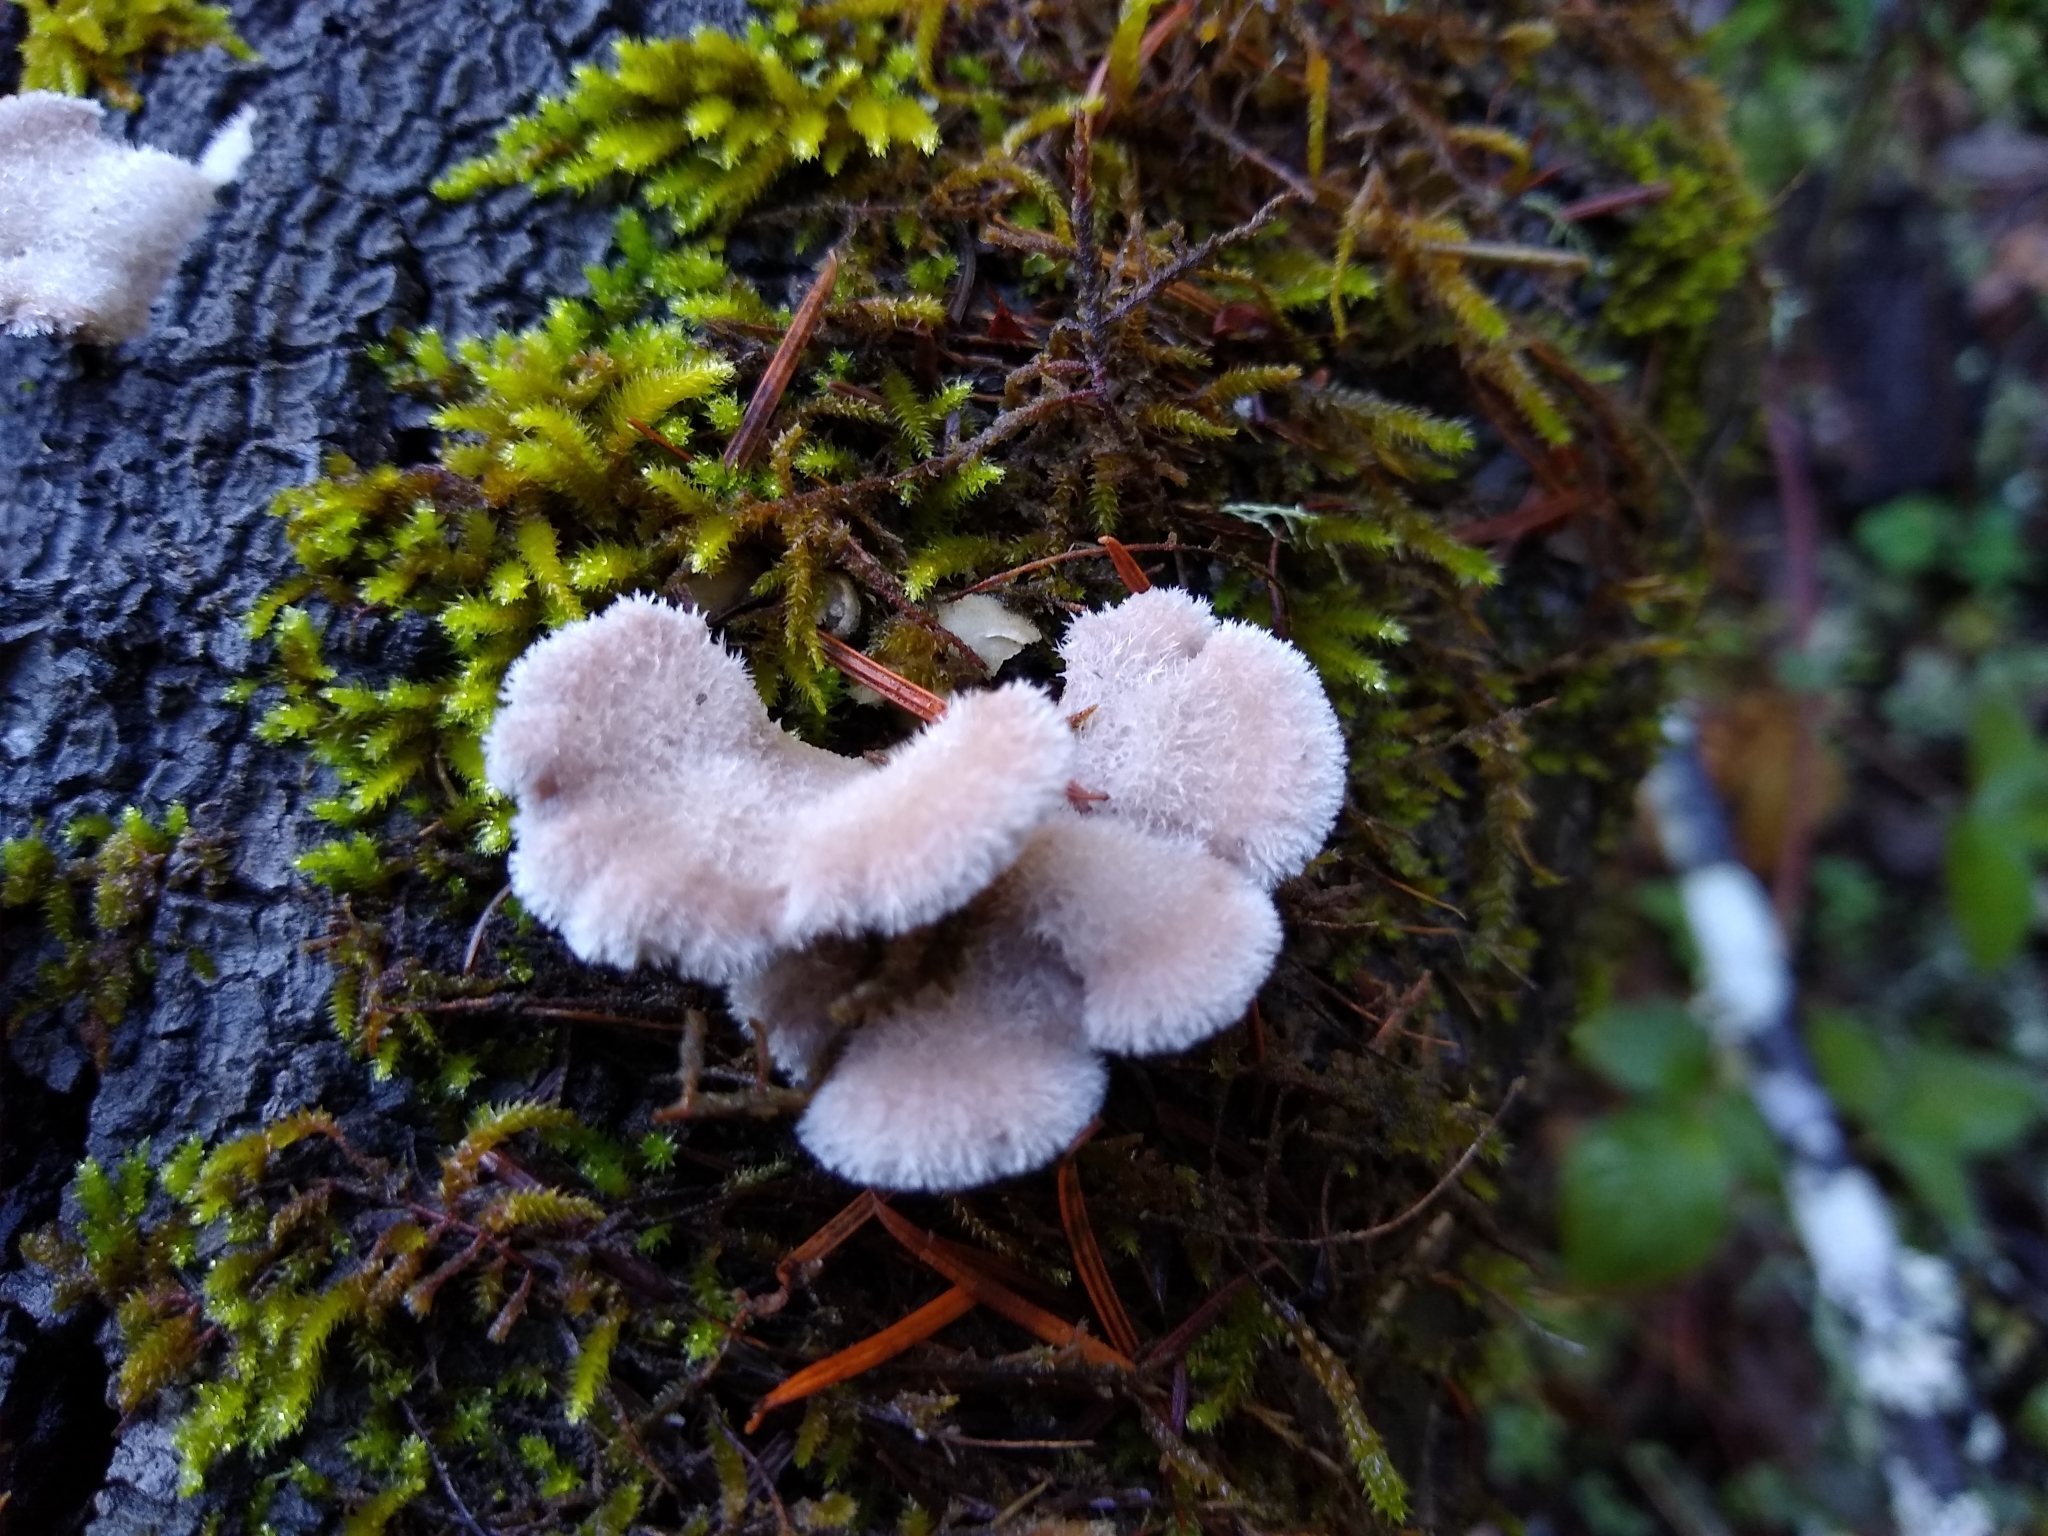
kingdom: Fungi
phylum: Basidiomycota
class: Agaricomycetes
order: Agaricales
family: Schizophyllaceae
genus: Schizophyllum
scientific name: Schizophyllum commune
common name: Common porecrust
